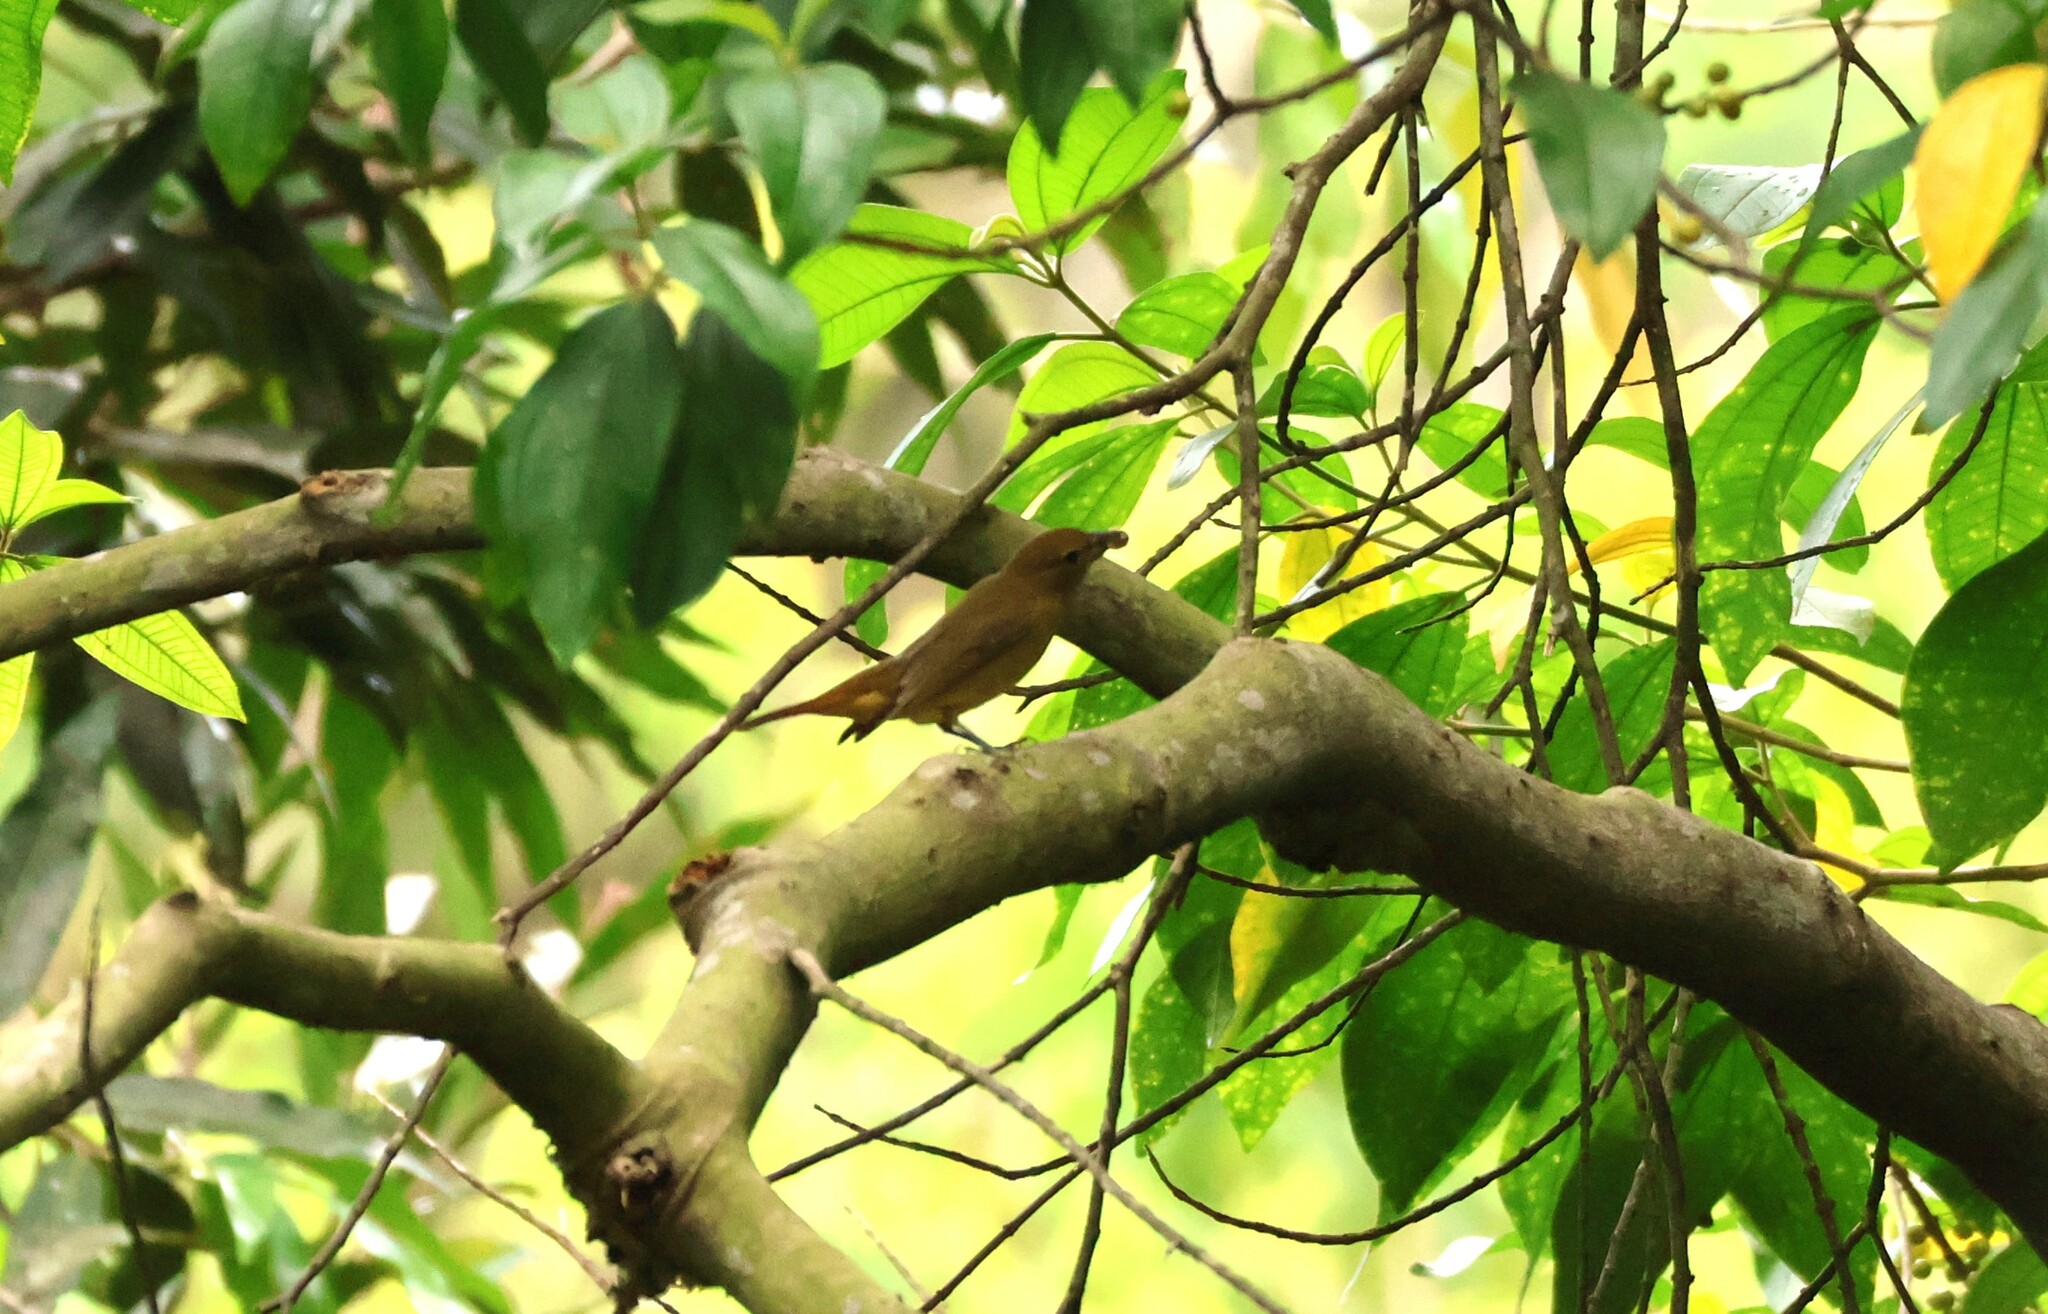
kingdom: Animalia
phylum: Chordata
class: Aves
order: Passeriformes
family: Cardinalidae
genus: Piranga
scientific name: Piranga rubra
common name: Summer tanager
